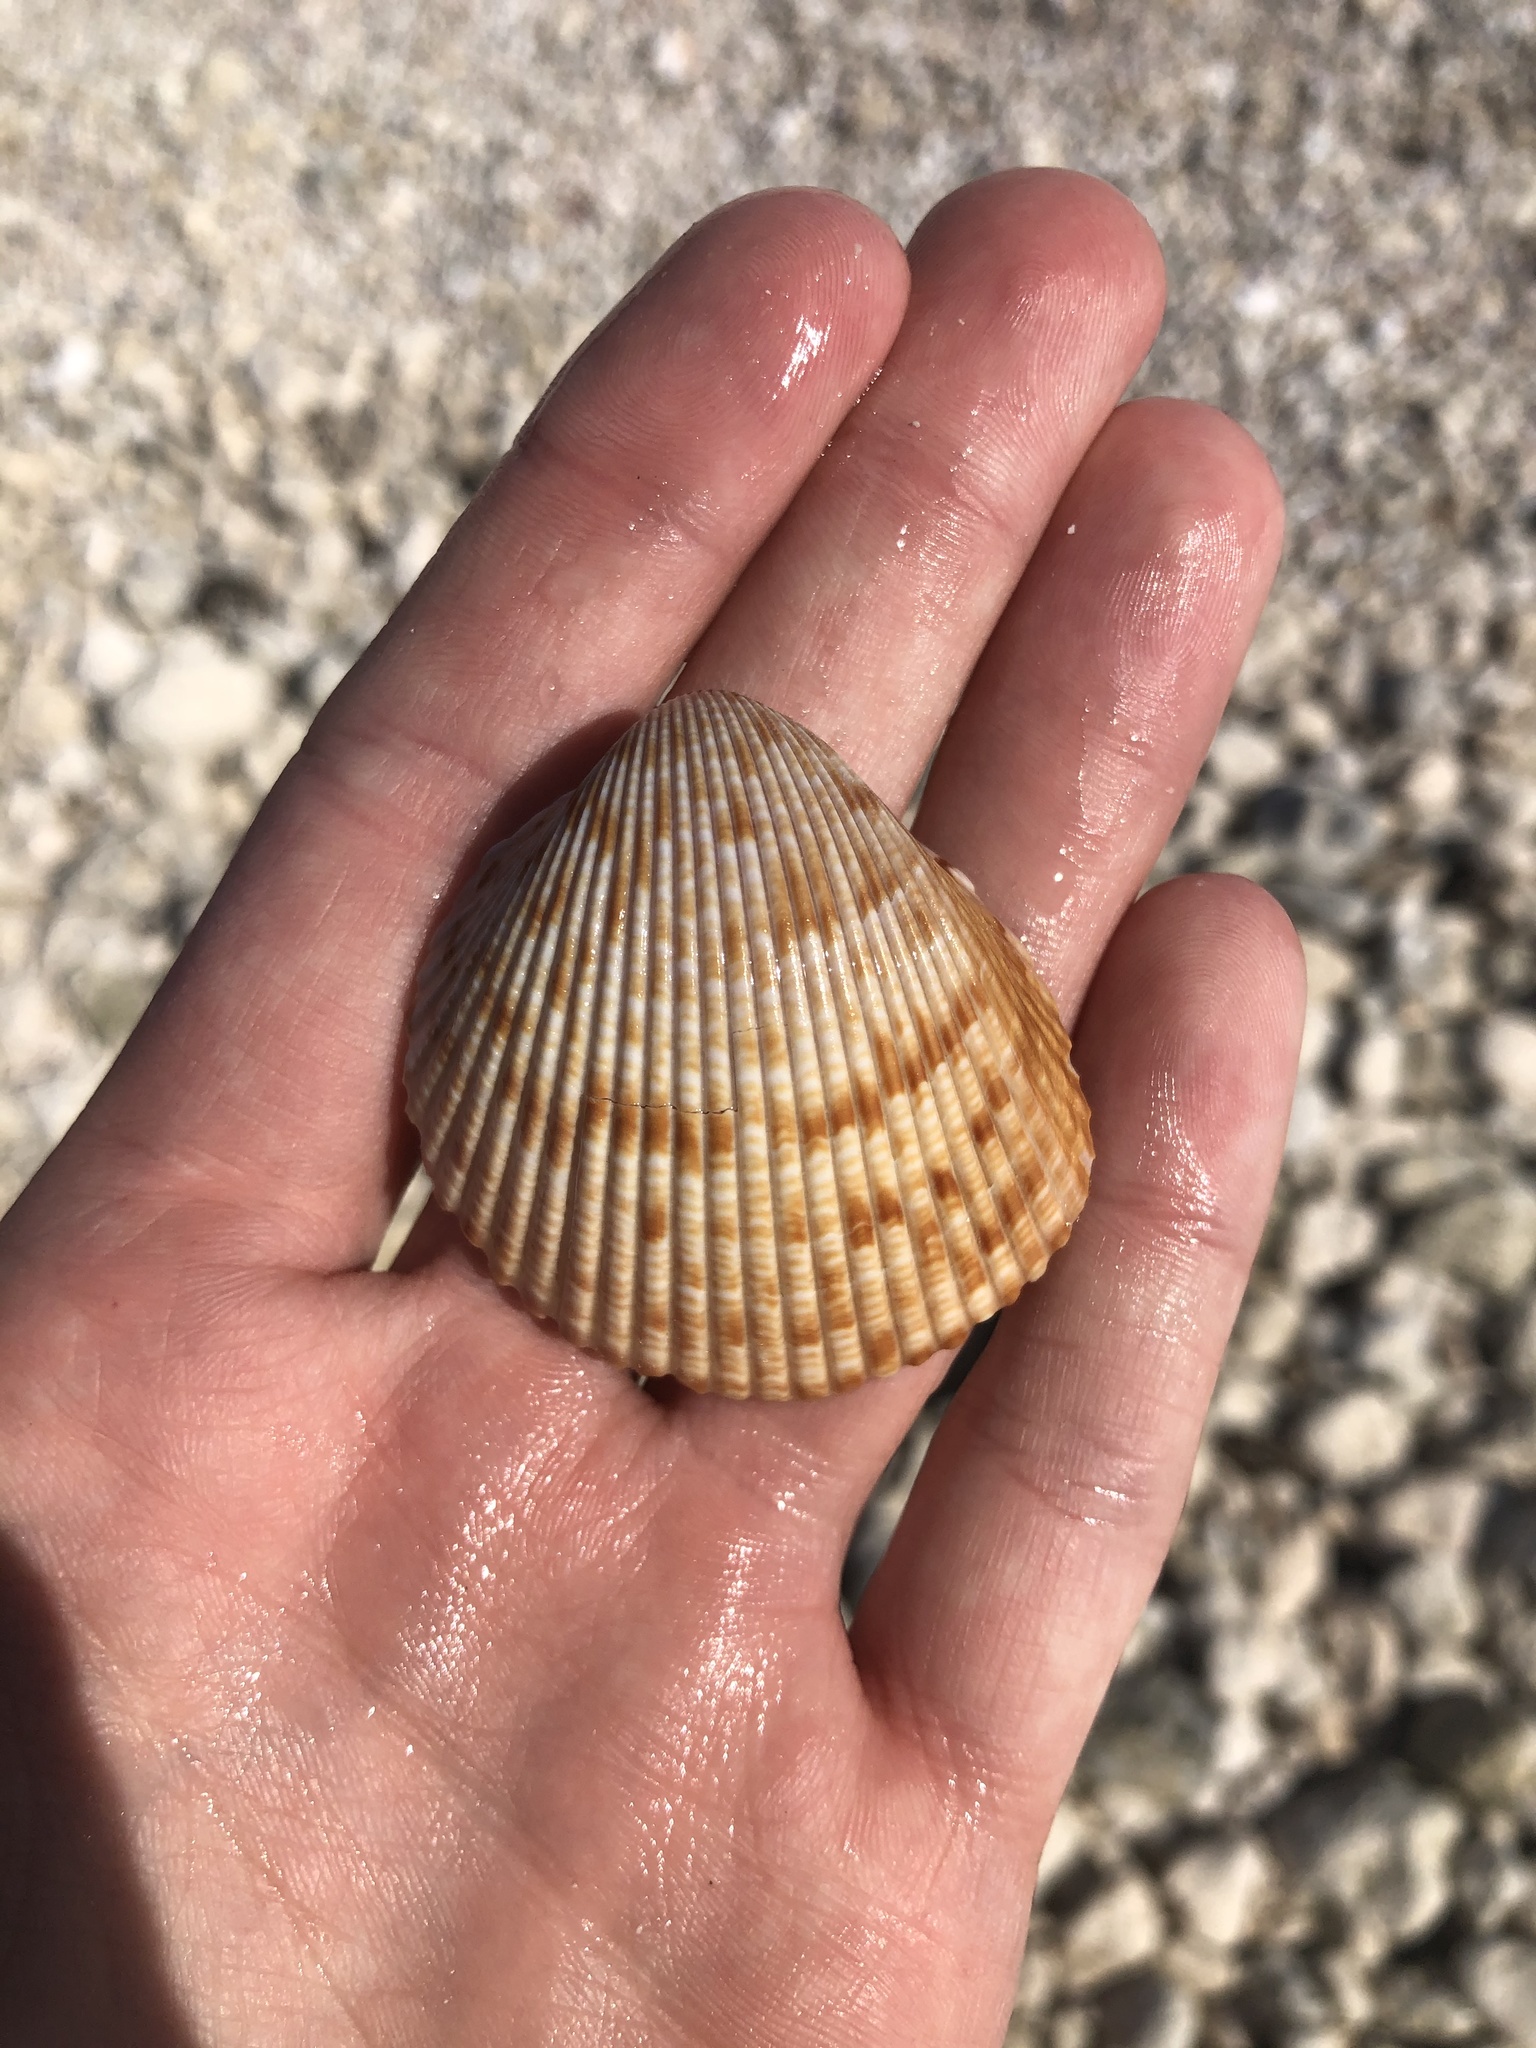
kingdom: Animalia
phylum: Mollusca
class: Bivalvia
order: Cardiida
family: Cardiidae
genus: Dinocardium
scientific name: Dinocardium robustum
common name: Atlantic giant cockle
